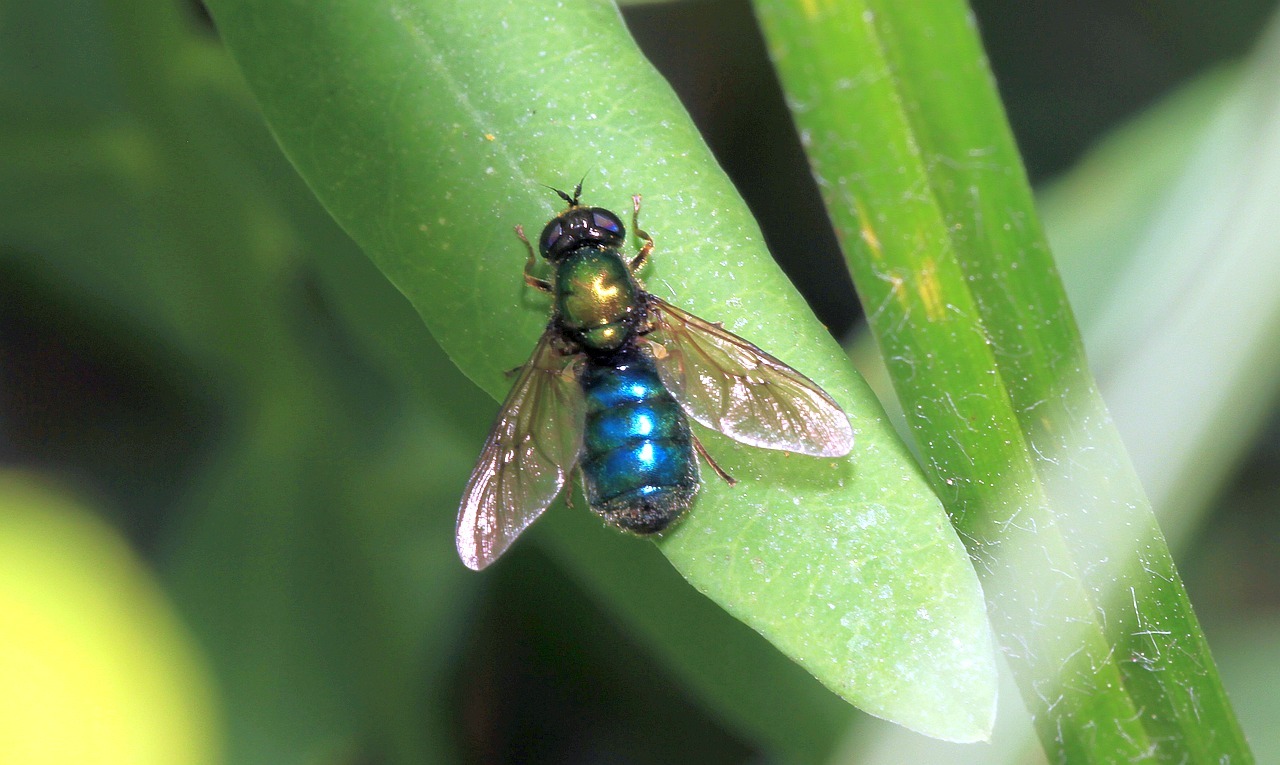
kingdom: Animalia
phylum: Arthropoda
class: Insecta
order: Diptera
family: Stratiomyidae
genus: Chloromyia
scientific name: Chloromyia formosa
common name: Soldier fly
